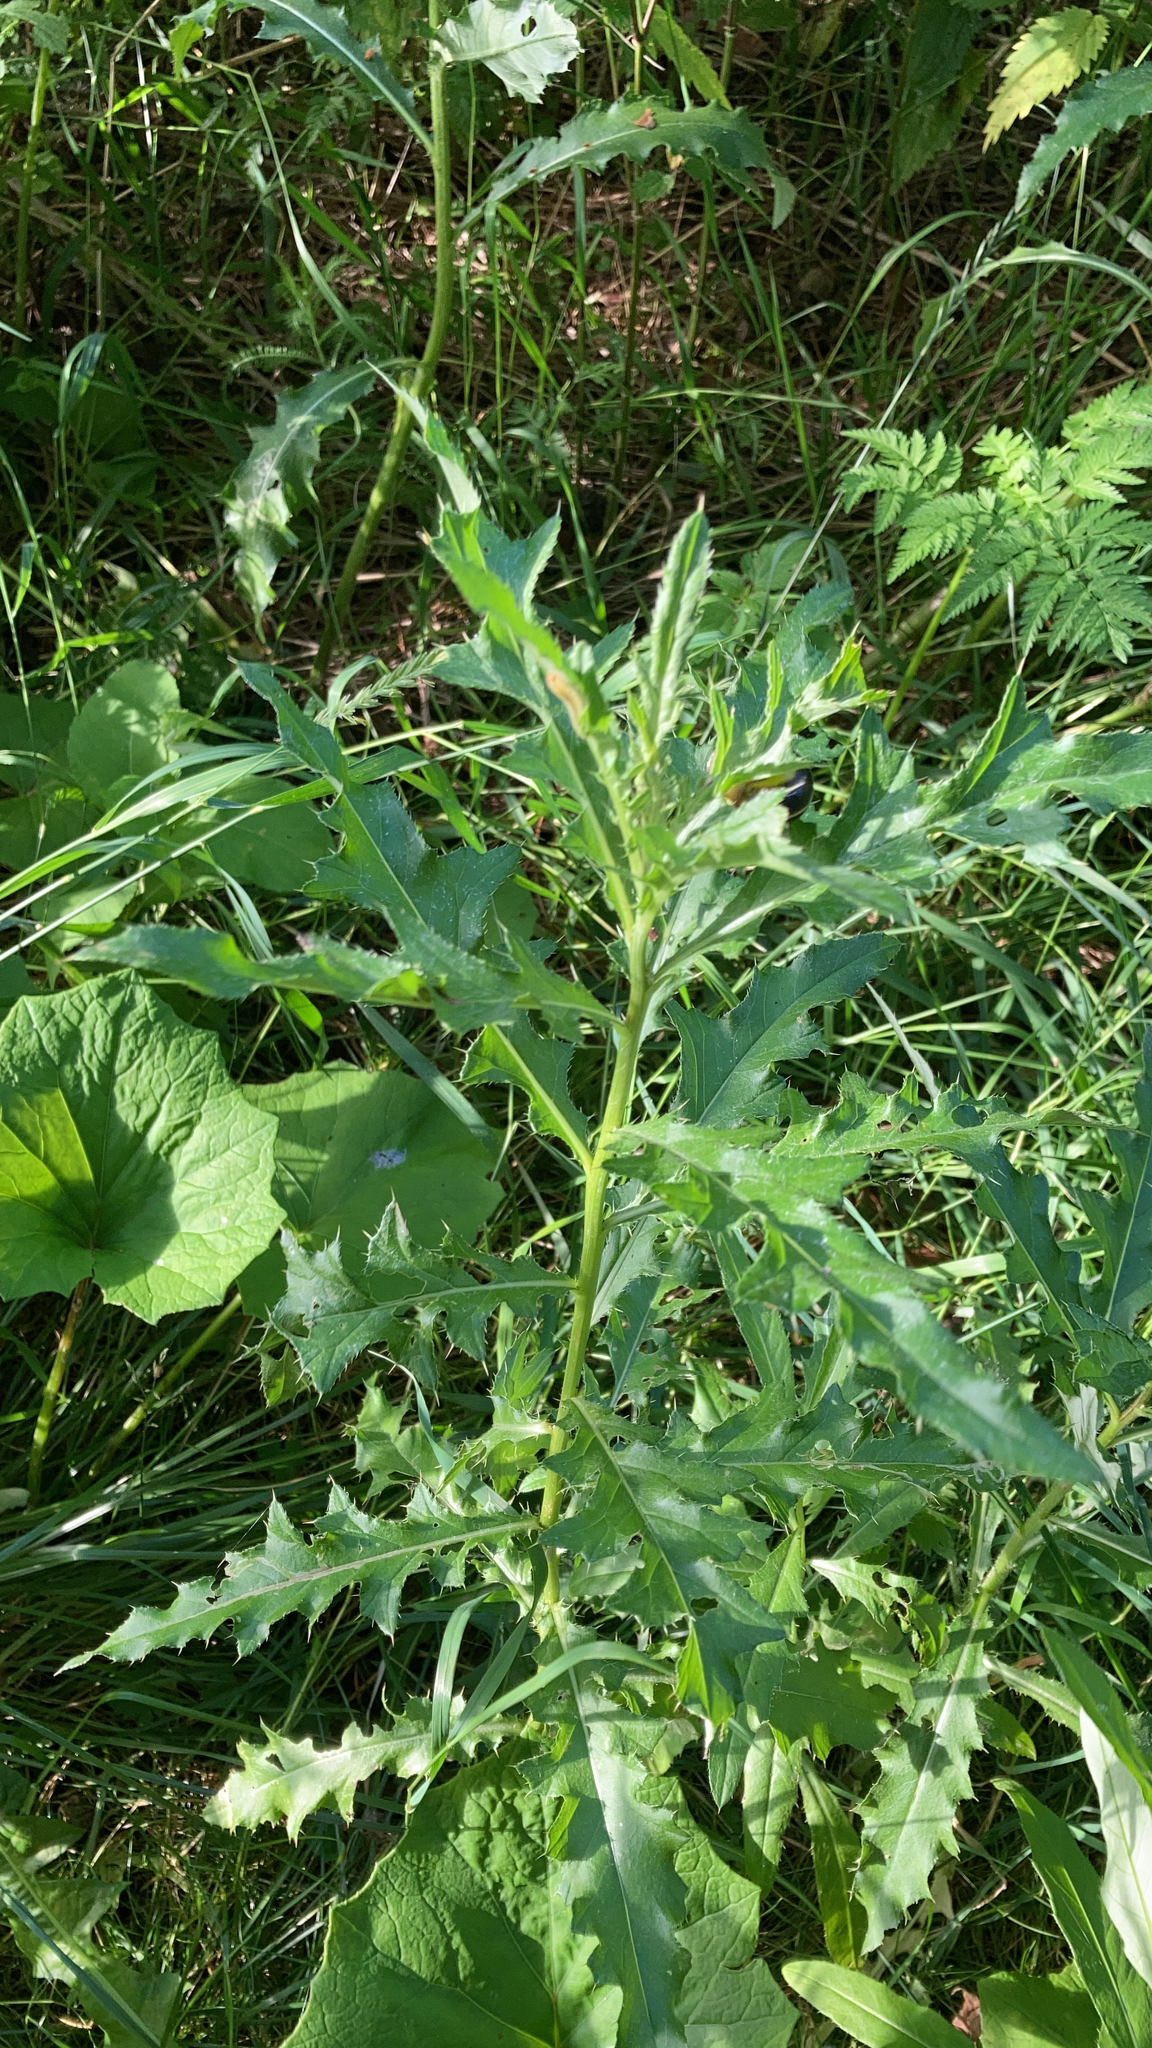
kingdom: Plantae
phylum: Tracheophyta
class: Magnoliopsida
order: Asterales
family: Asteraceae
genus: Cirsium
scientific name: Cirsium arvense
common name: Creeping thistle
